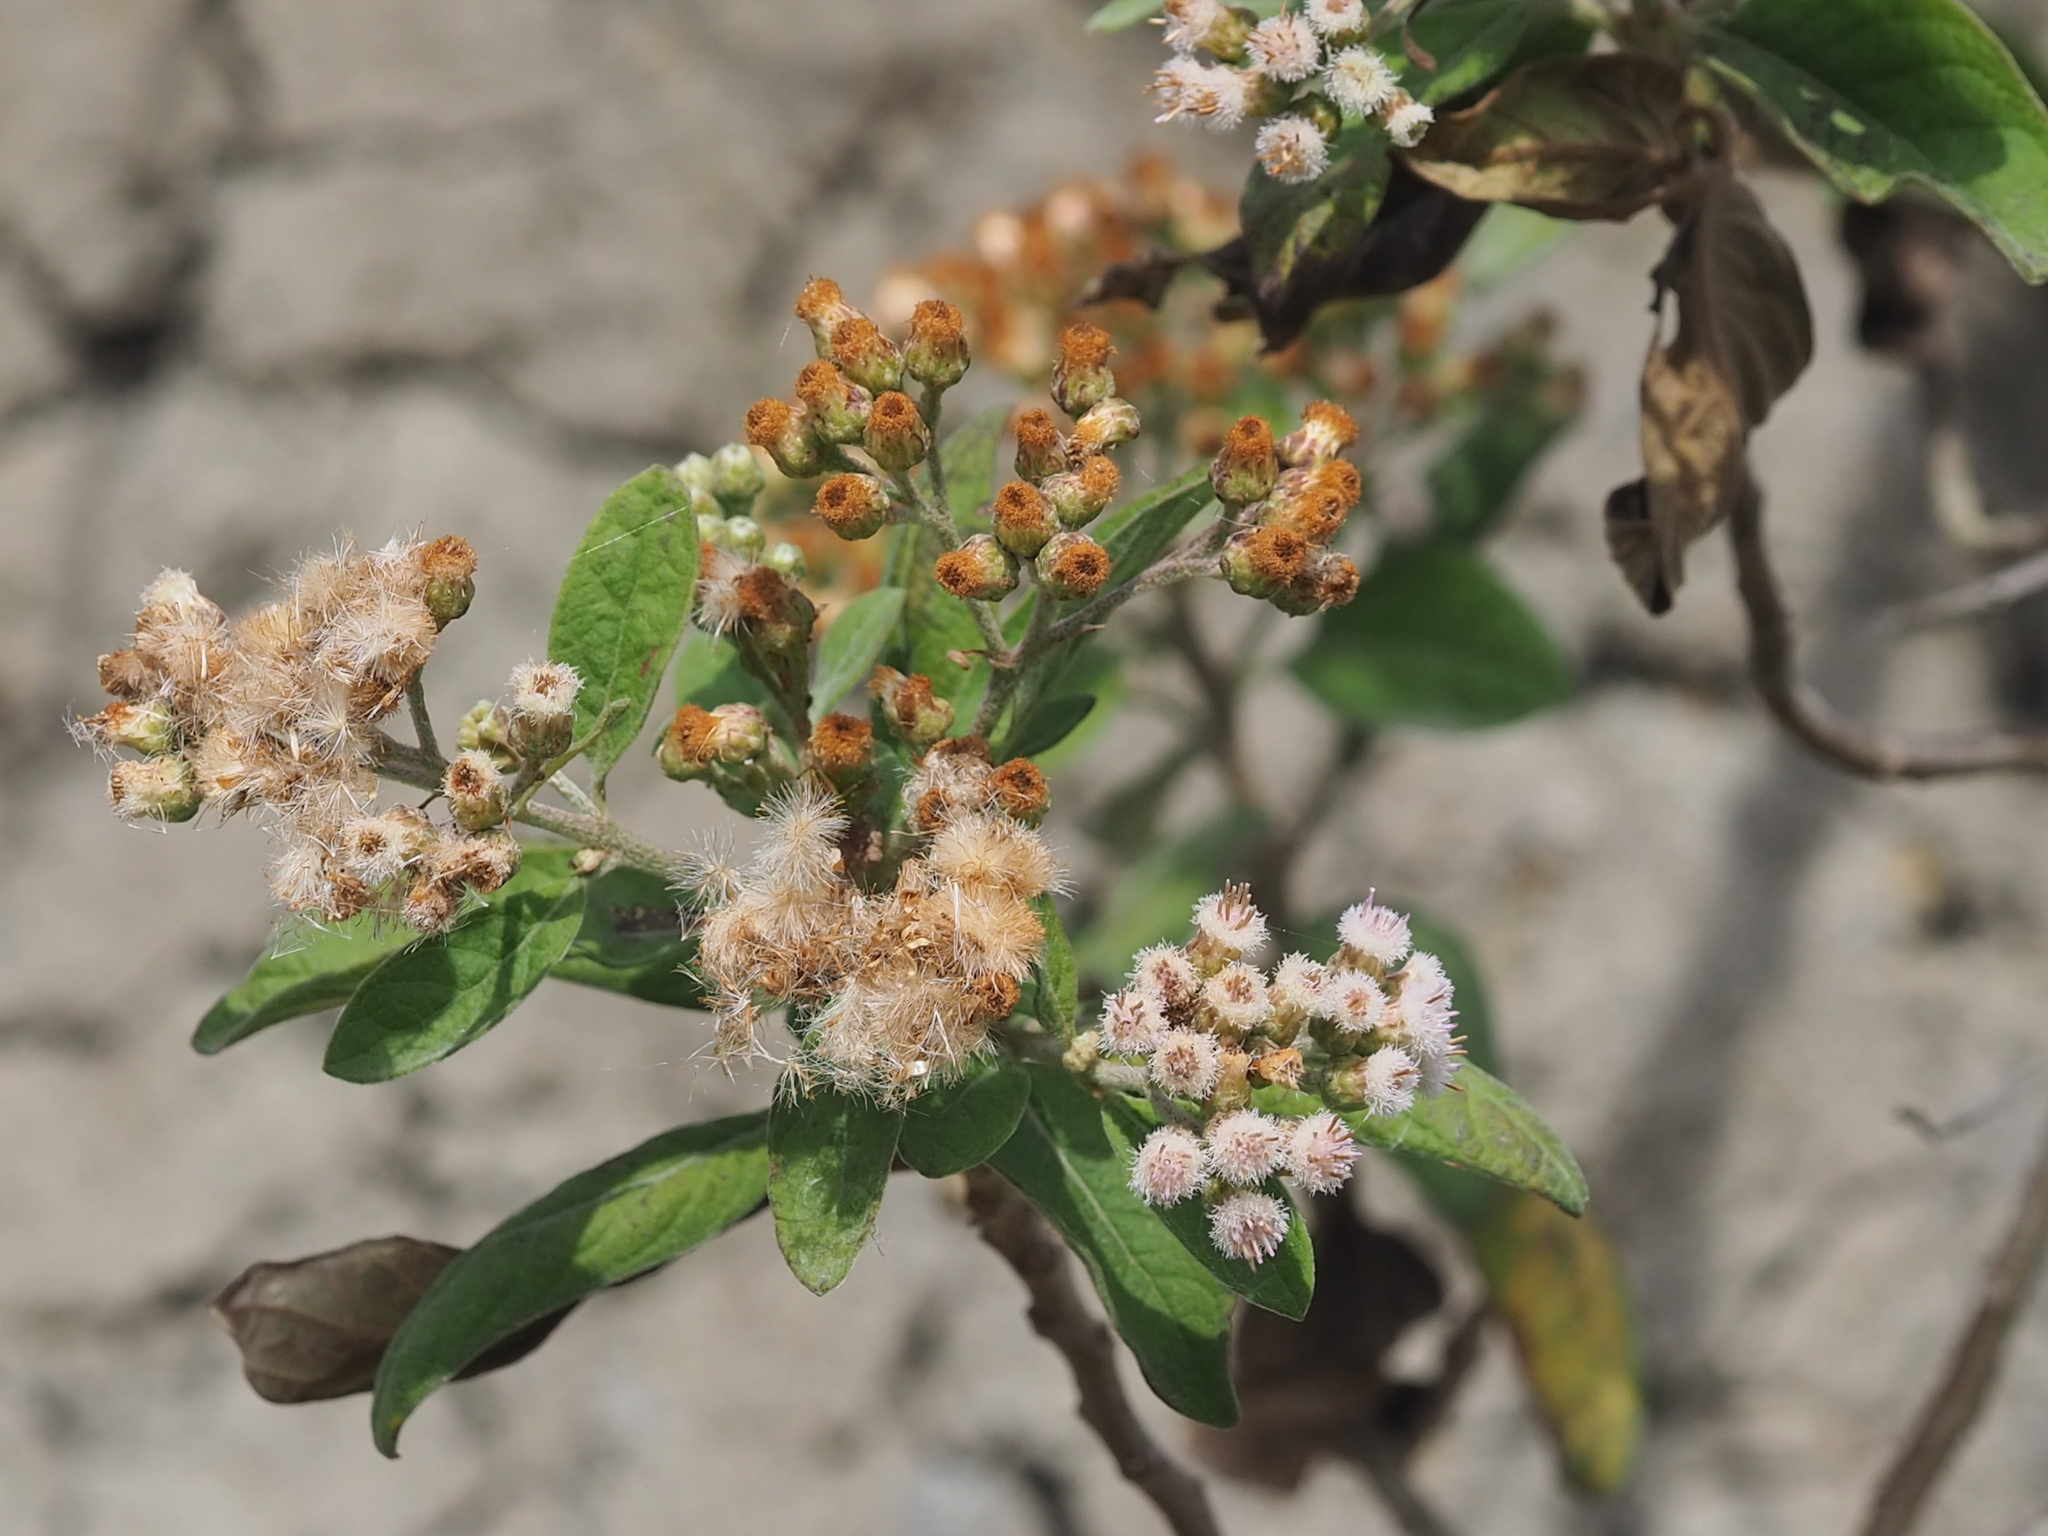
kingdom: Plantae
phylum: Tracheophyta
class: Magnoliopsida
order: Asterales
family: Asteraceae
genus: Pluchea
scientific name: Pluchea carolinensis
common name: Marsh fleabane
